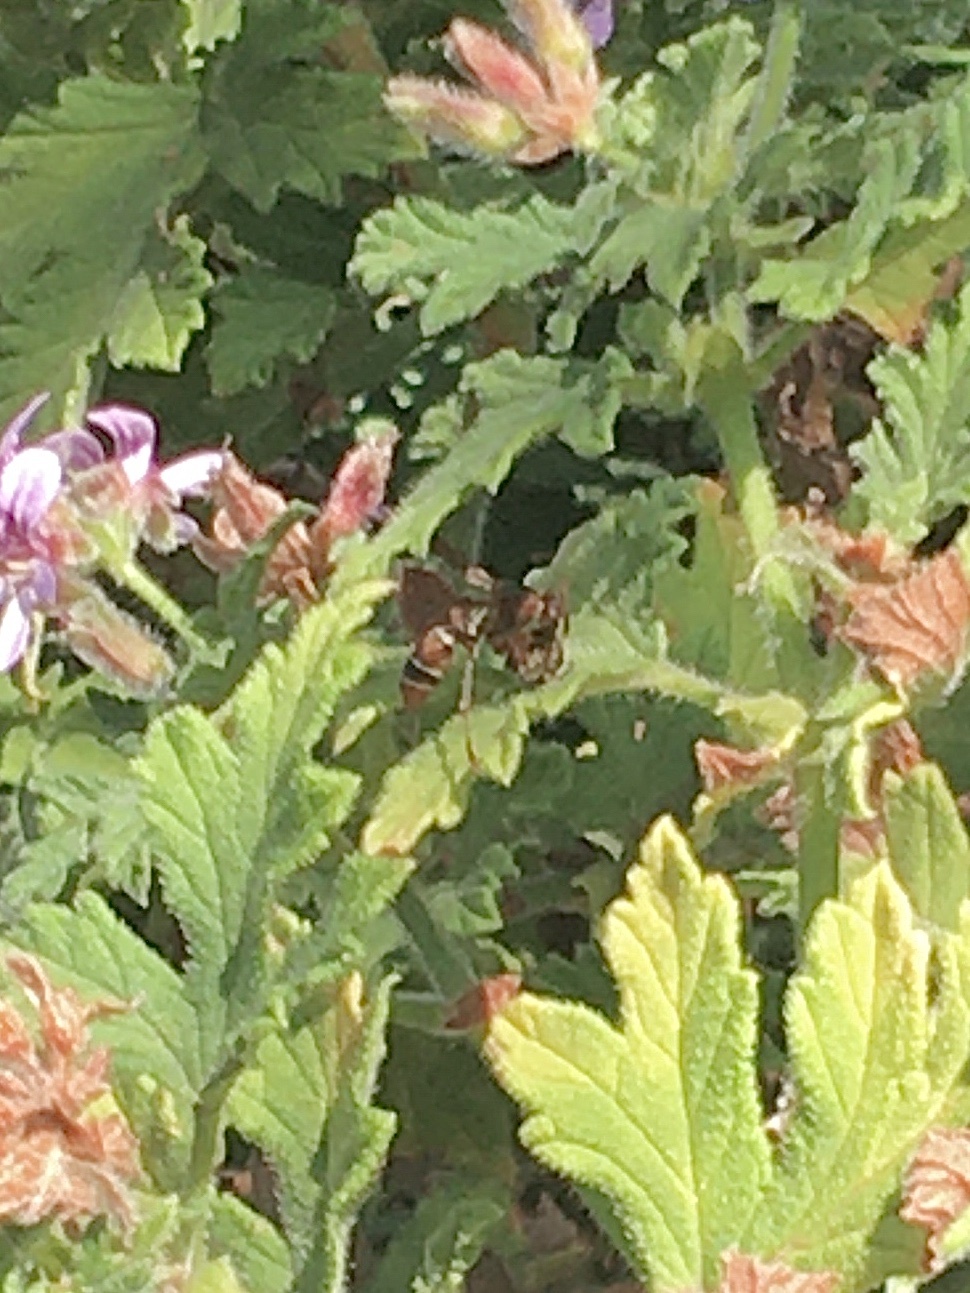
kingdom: Animalia
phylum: Arthropoda
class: Insecta
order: Hymenoptera
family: Eumenidae
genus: Polistes
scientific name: Polistes marginalis
